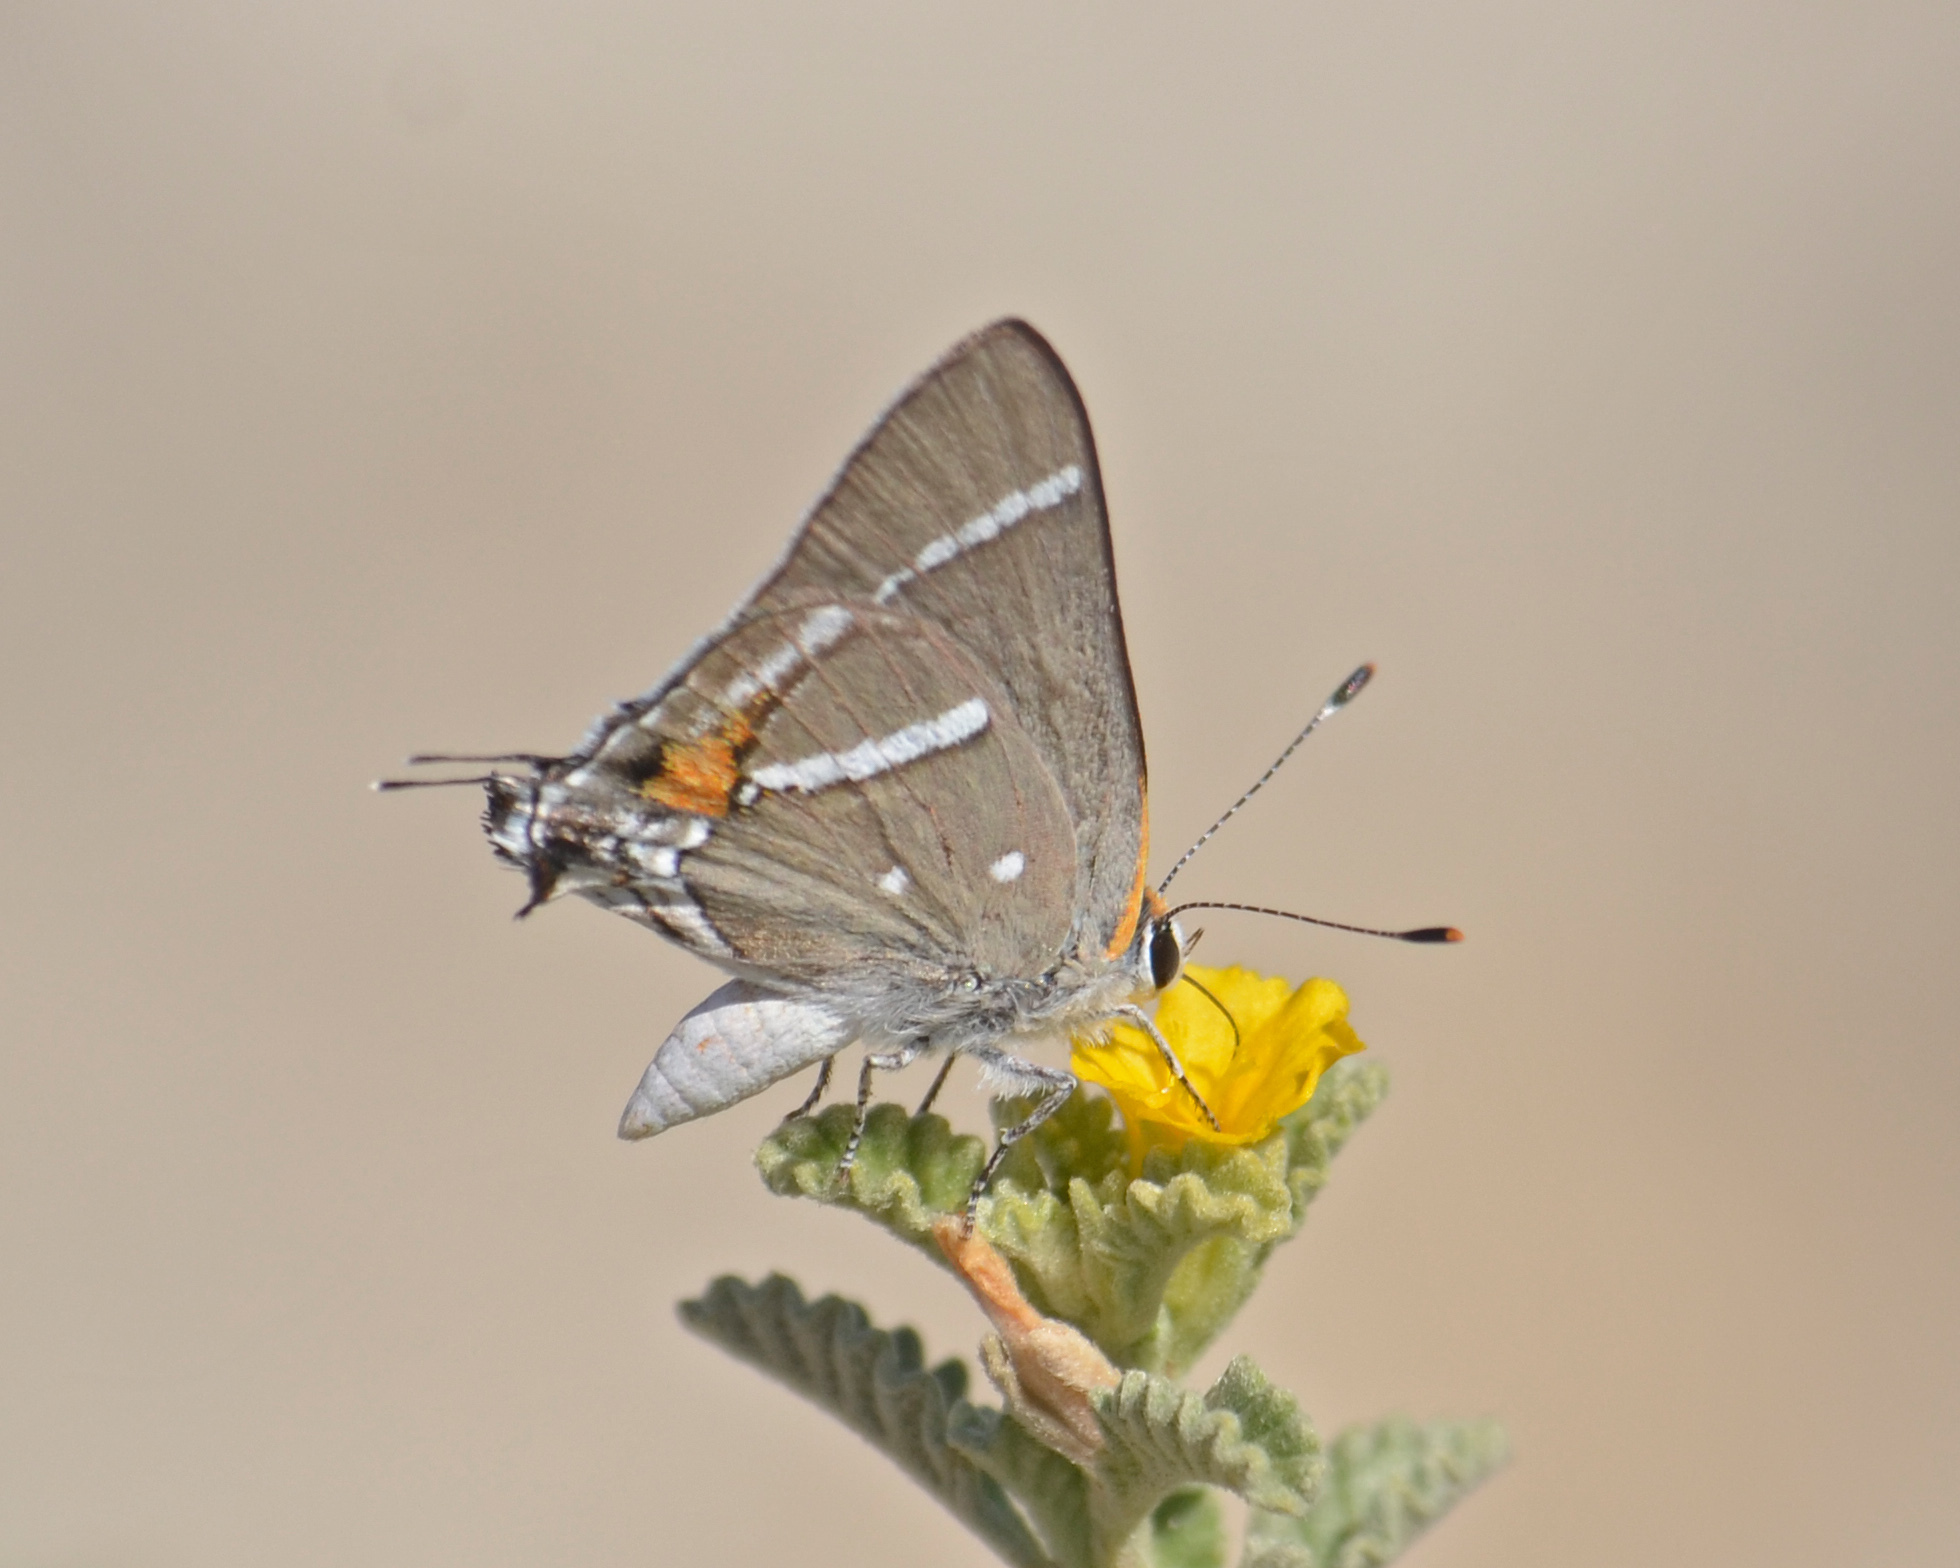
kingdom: Animalia
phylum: Arthropoda
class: Insecta
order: Lepidoptera
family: Lycaenidae
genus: Strymon
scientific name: Strymon acis
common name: Antillean hairstreak
